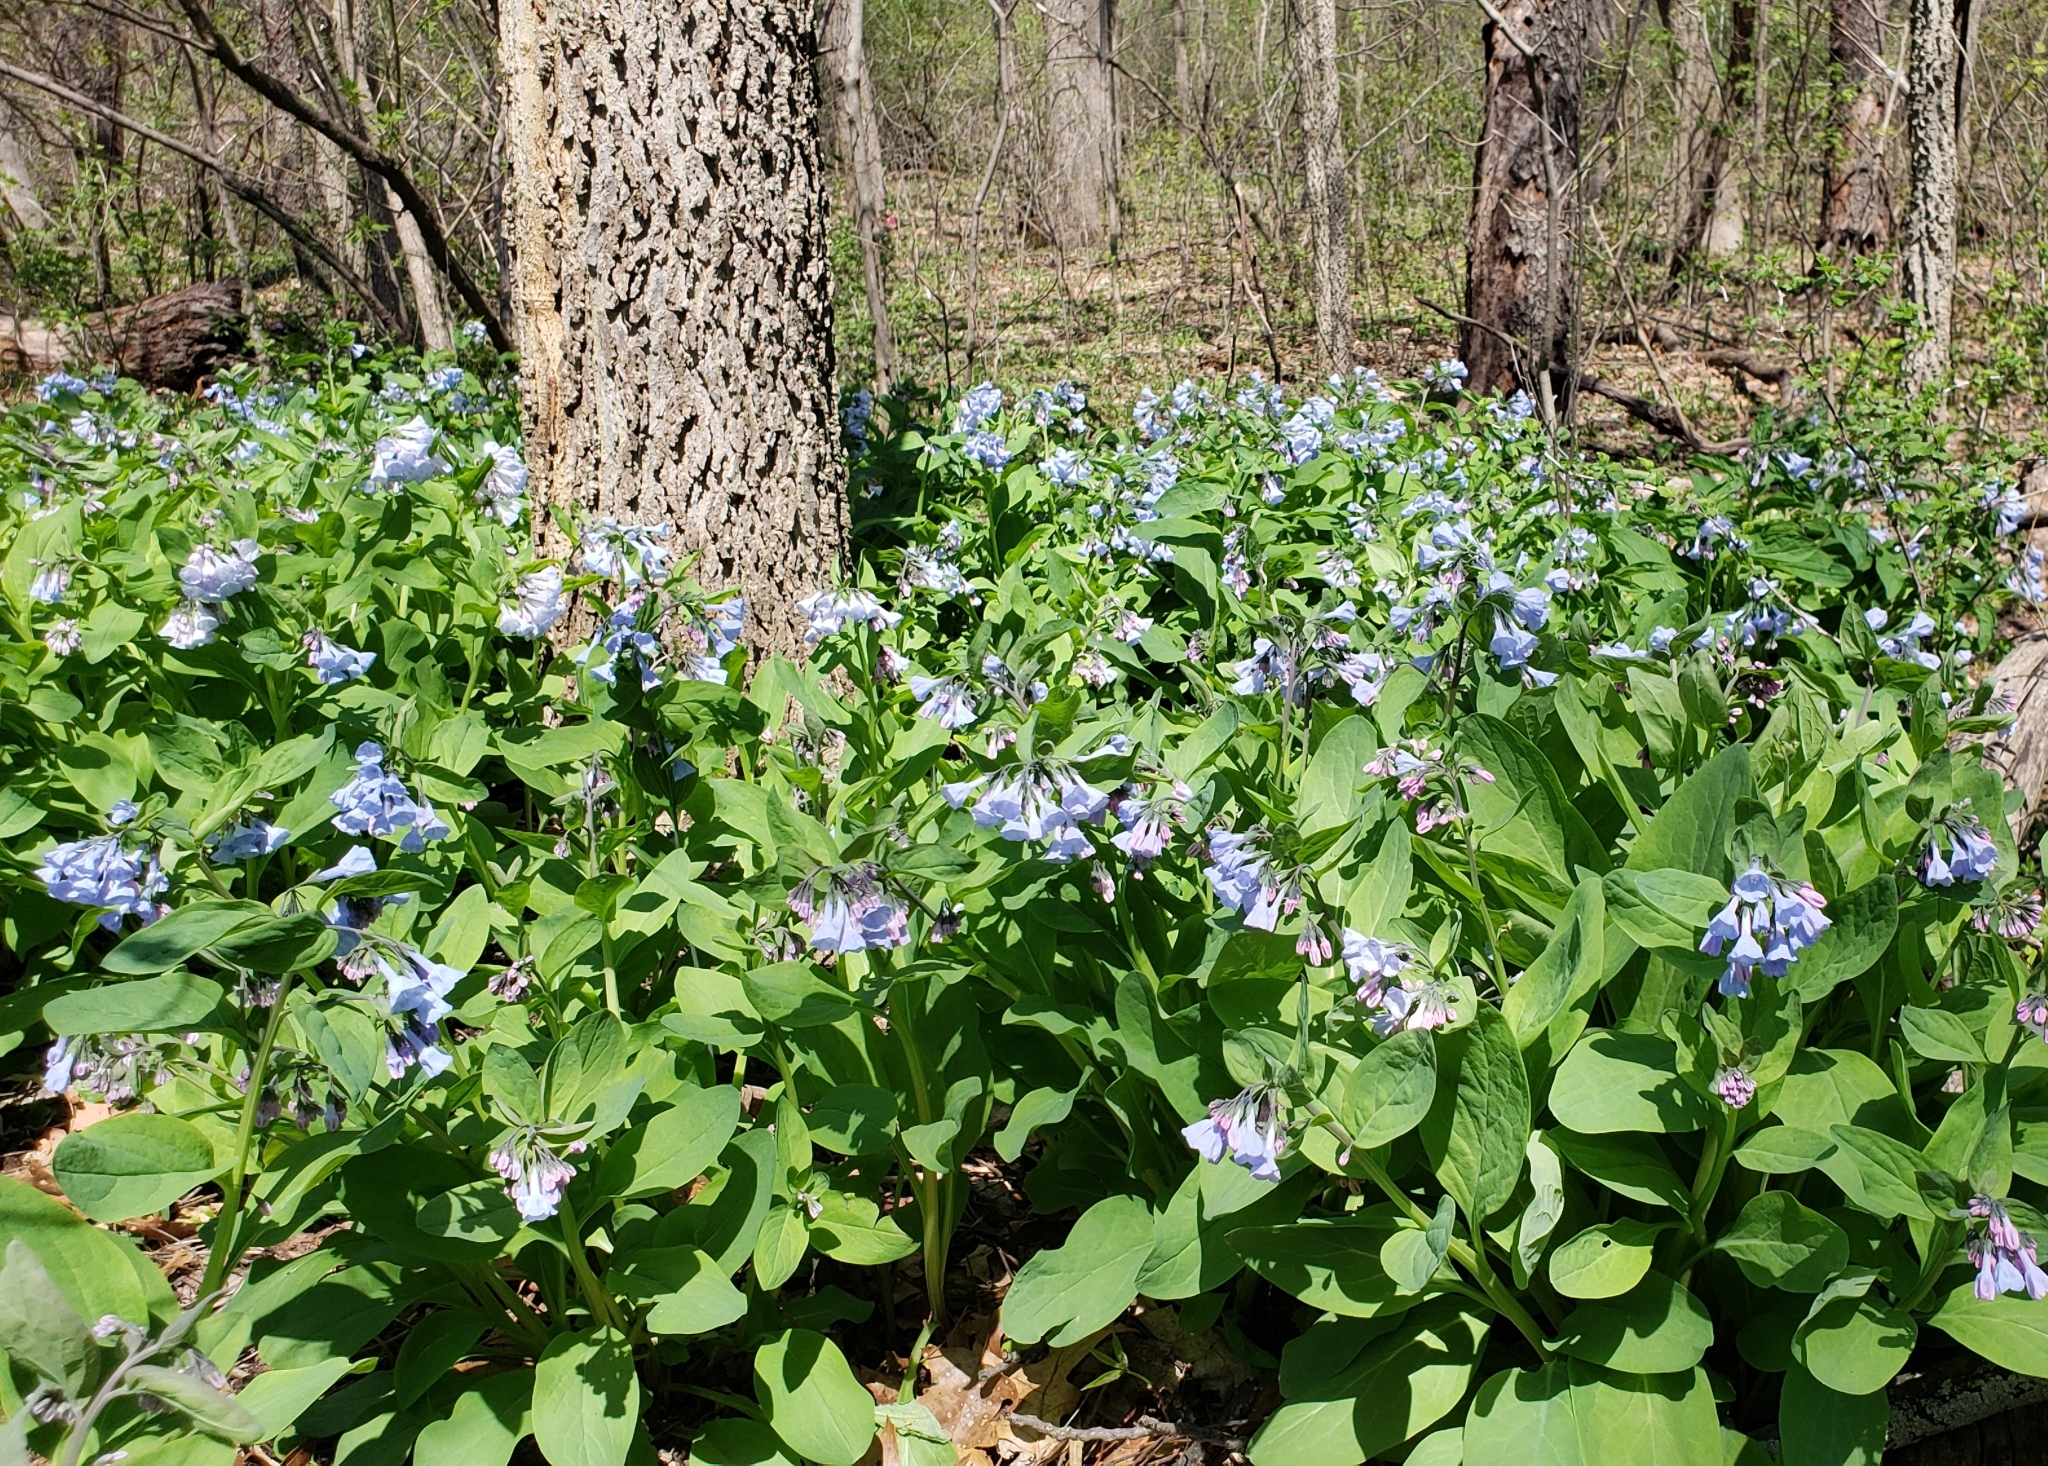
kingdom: Plantae
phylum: Tracheophyta
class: Magnoliopsida
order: Boraginales
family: Boraginaceae
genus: Mertensia
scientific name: Mertensia virginica
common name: Virginia bluebells
